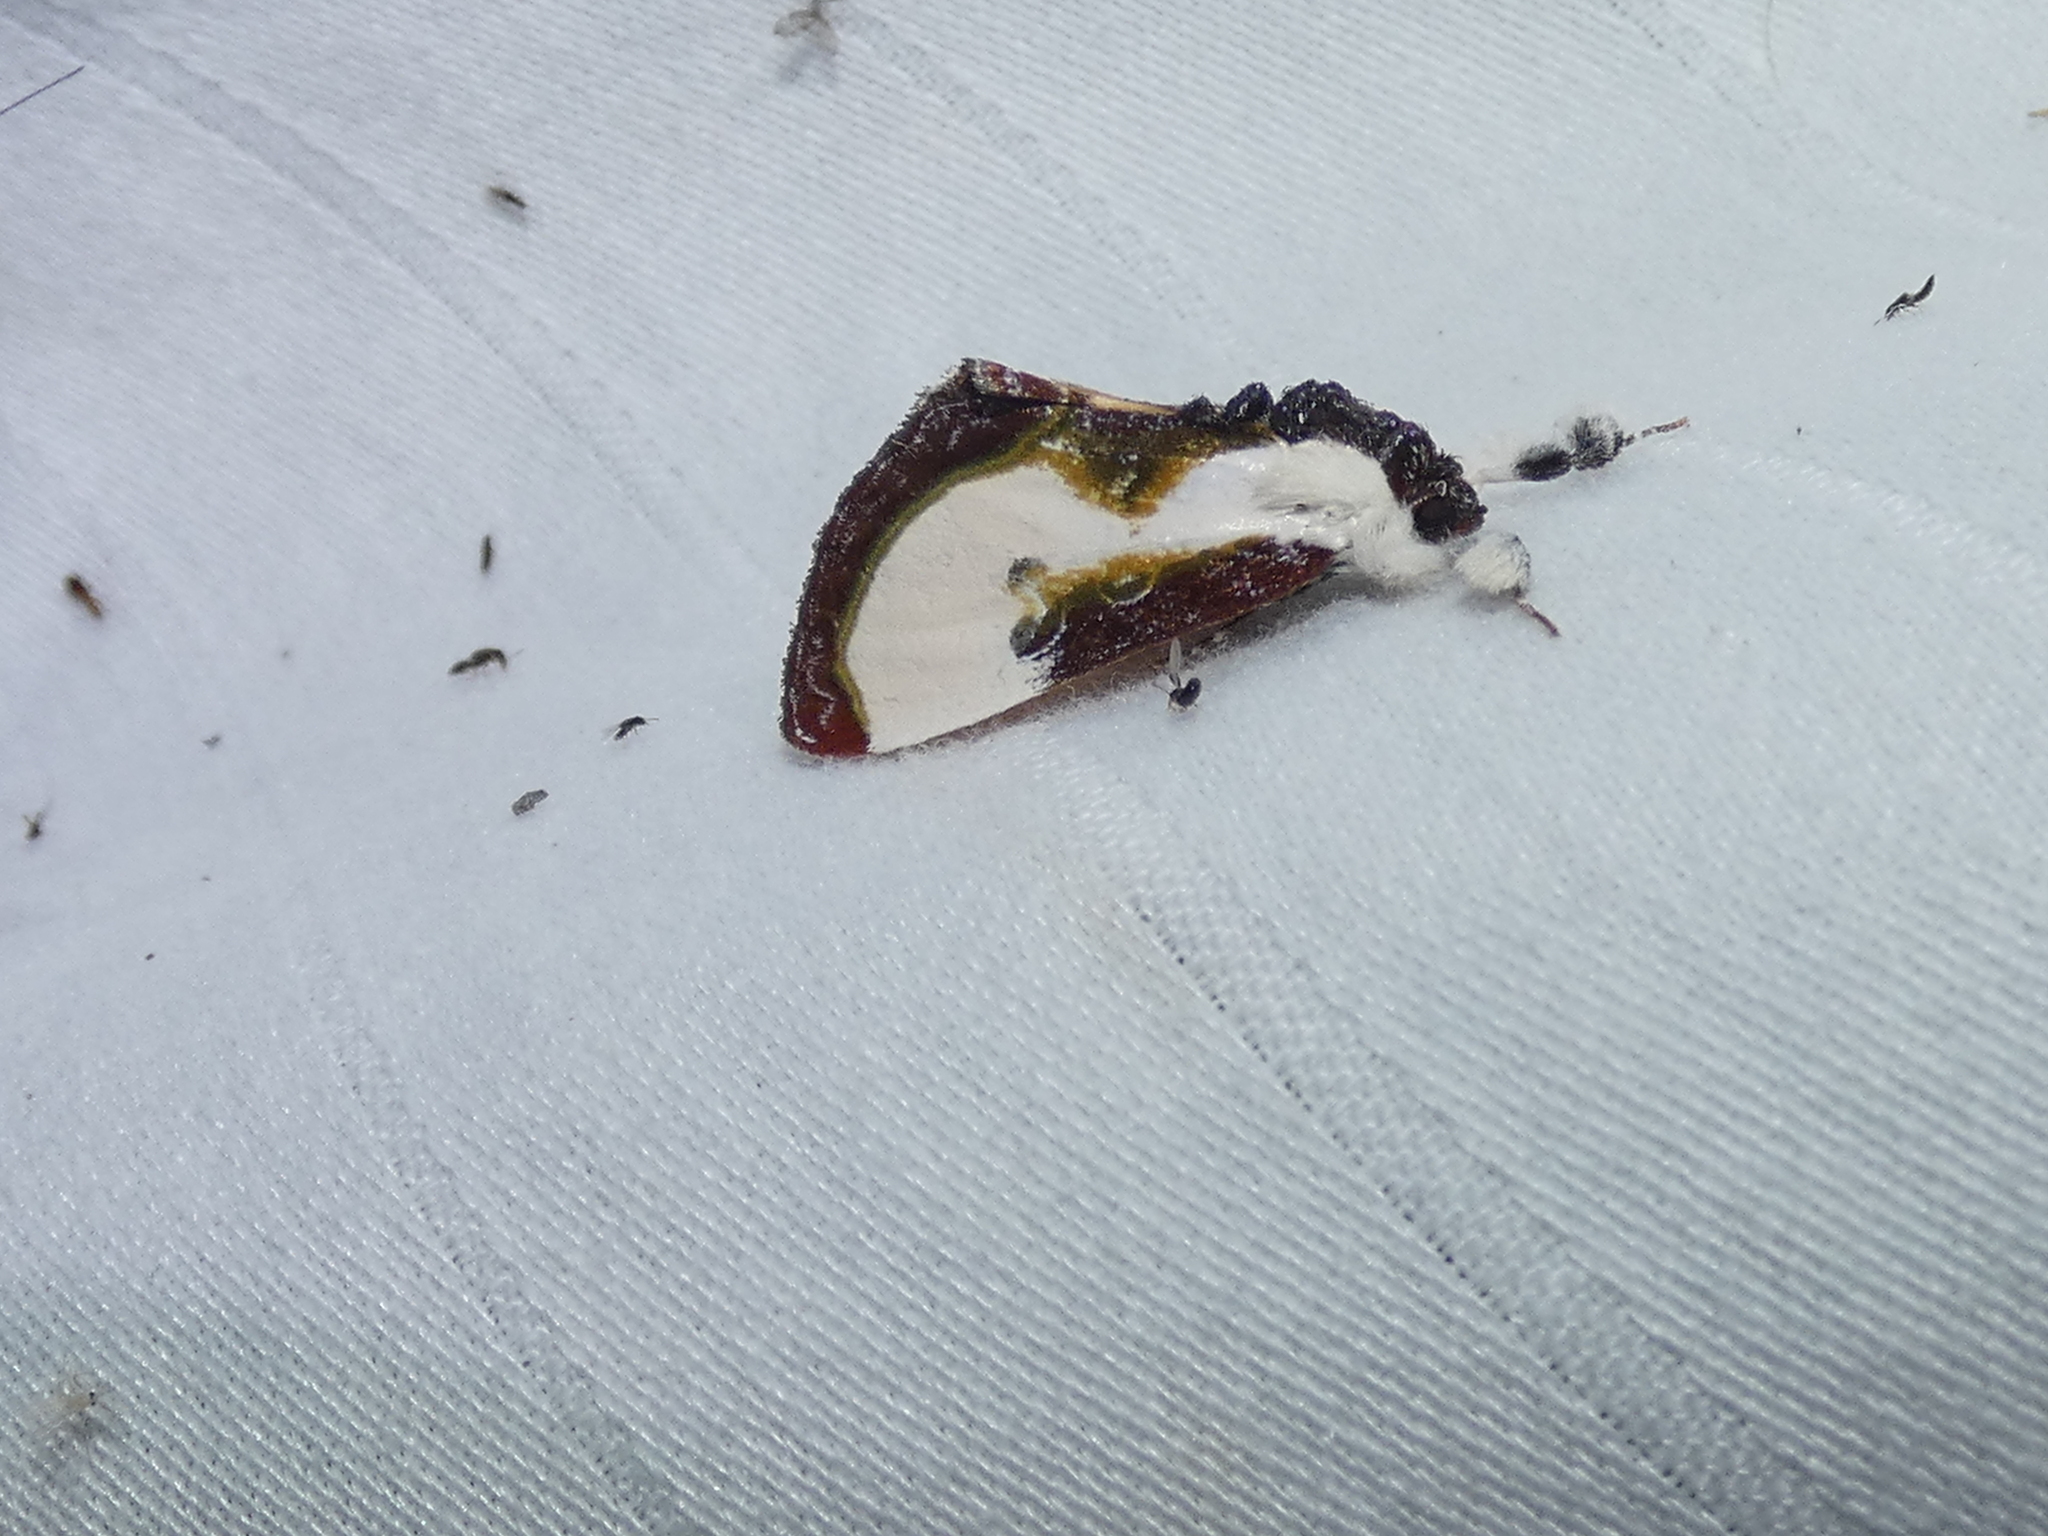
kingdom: Animalia
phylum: Arthropoda
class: Insecta
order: Lepidoptera
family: Noctuidae
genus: Eudryas
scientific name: Eudryas grata
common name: Beautiful wood-nymph
